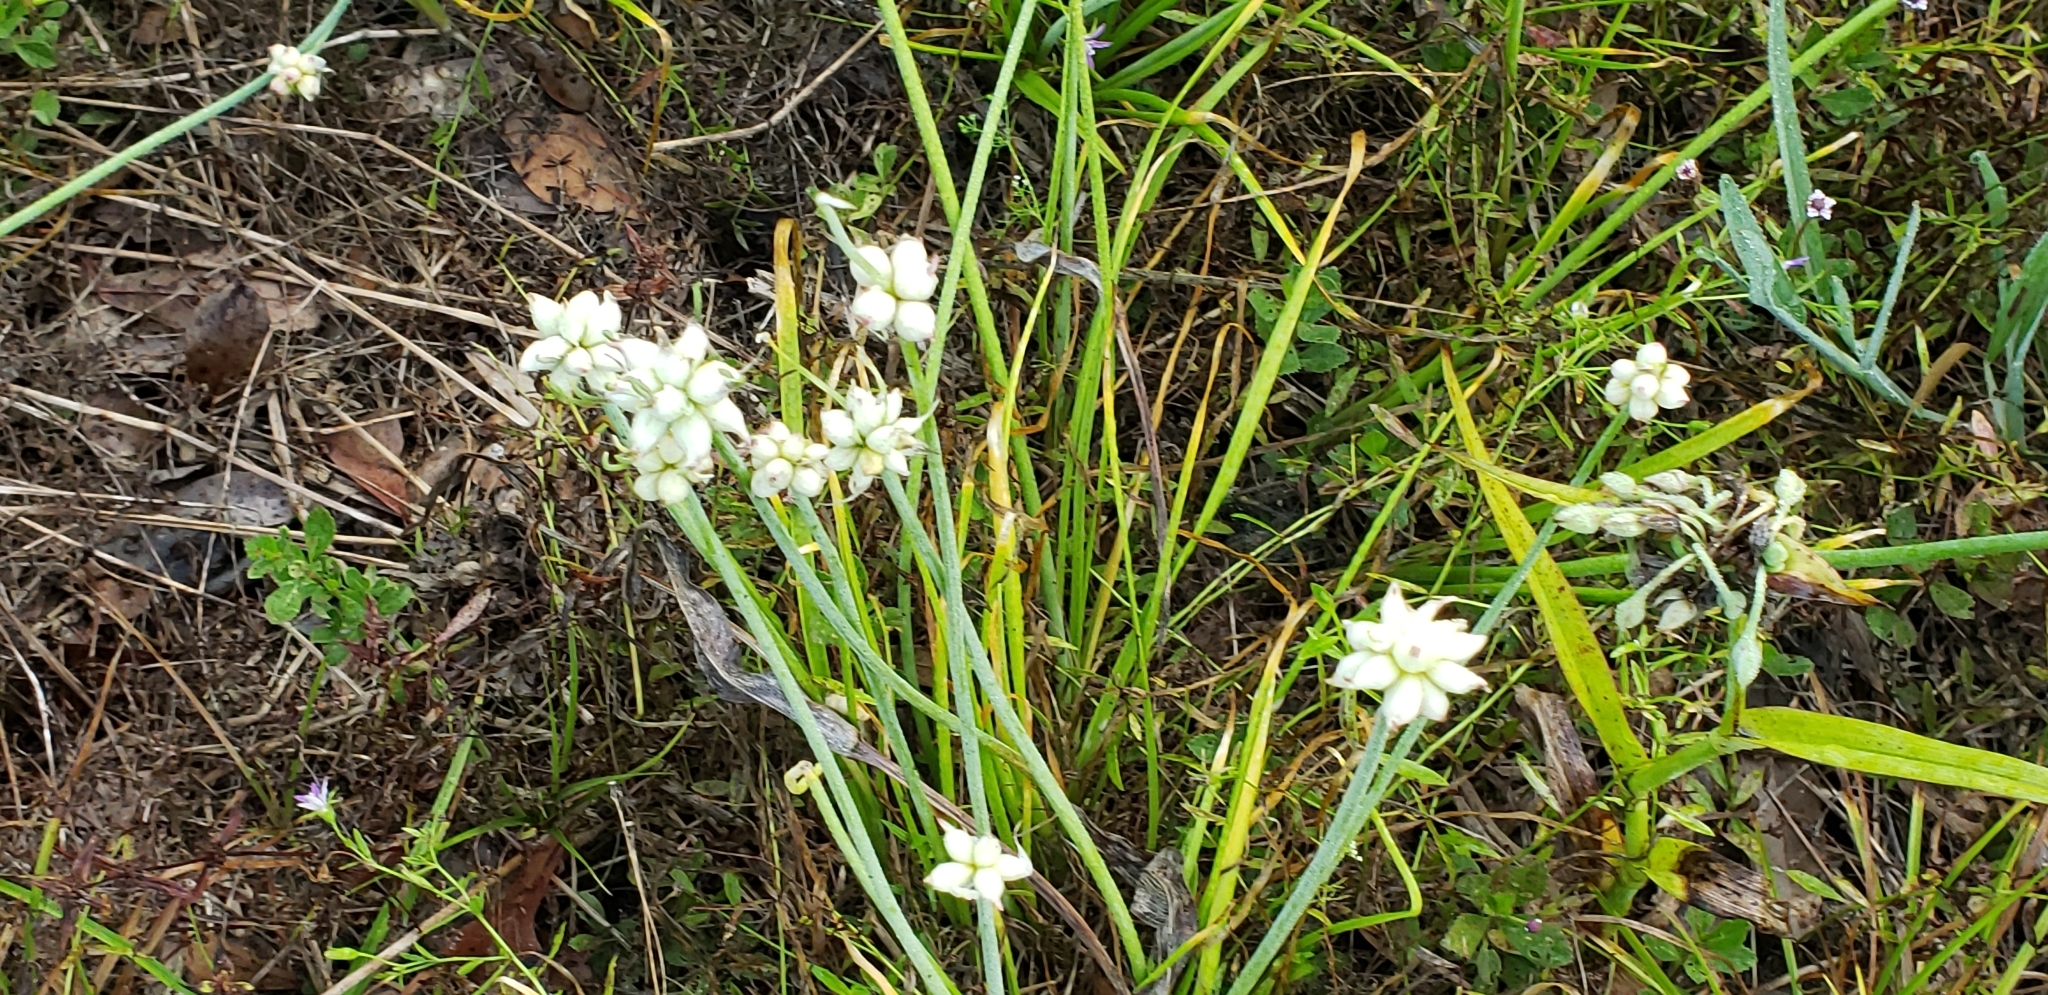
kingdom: Plantae
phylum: Tracheophyta
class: Liliopsida
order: Asparagales
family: Amaryllidaceae
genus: Allium
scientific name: Allium canadense
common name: Meadow garlic
